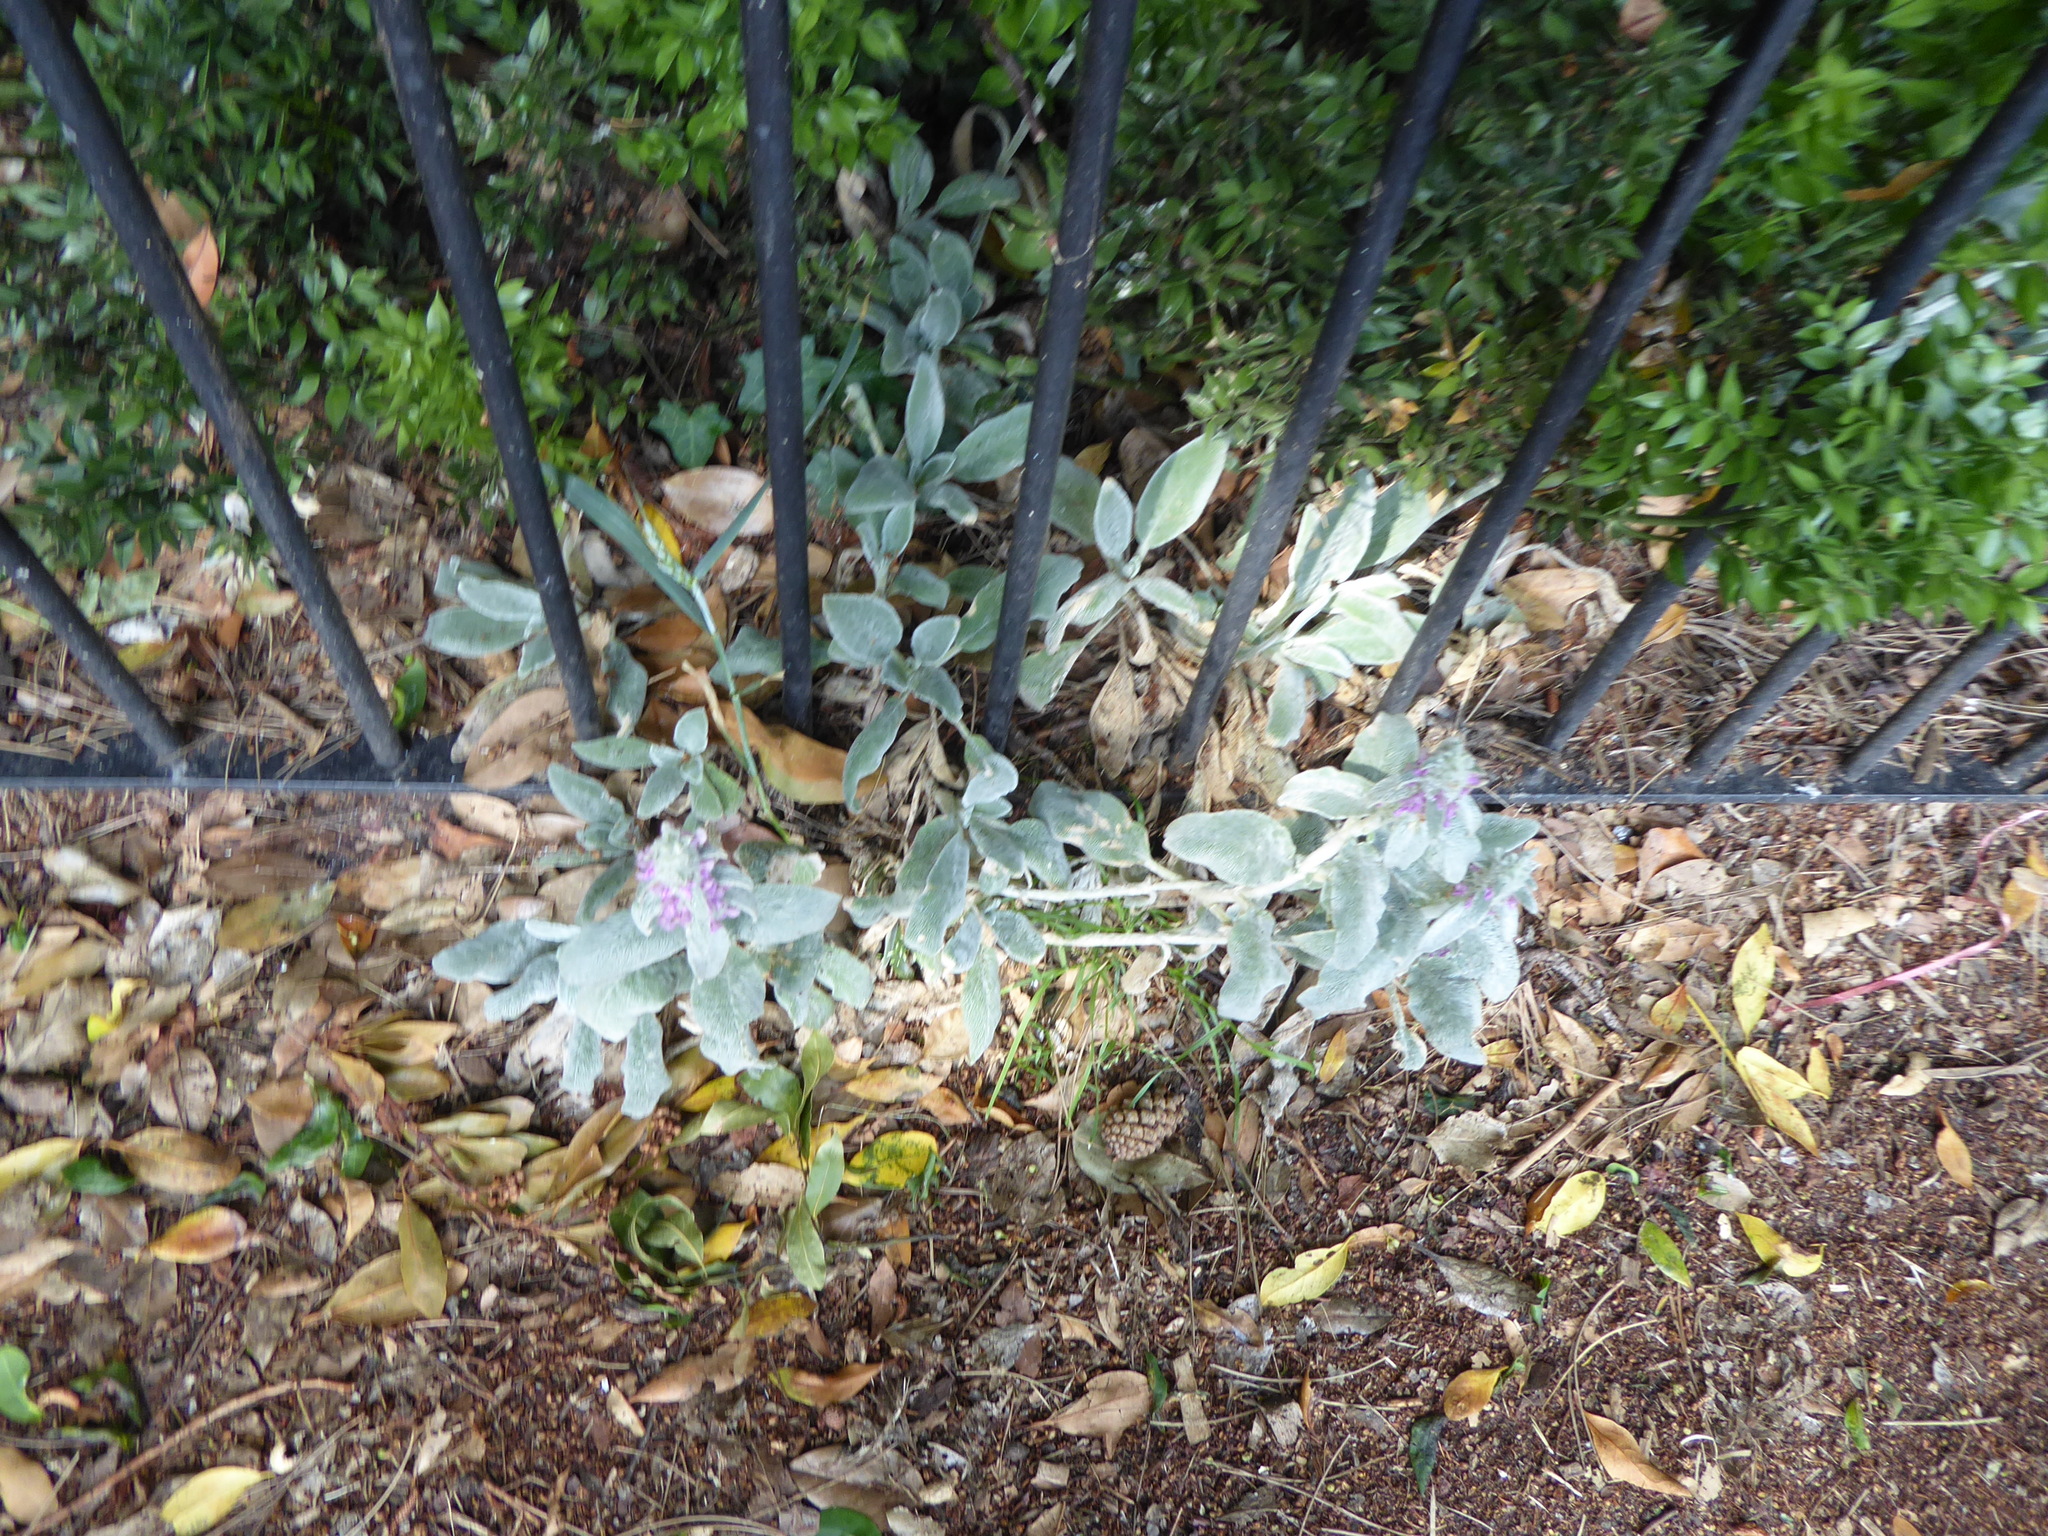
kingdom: Plantae
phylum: Tracheophyta
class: Magnoliopsida
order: Lamiales
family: Lamiaceae
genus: Stachys
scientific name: Stachys byzantina
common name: Lamb's-ear
